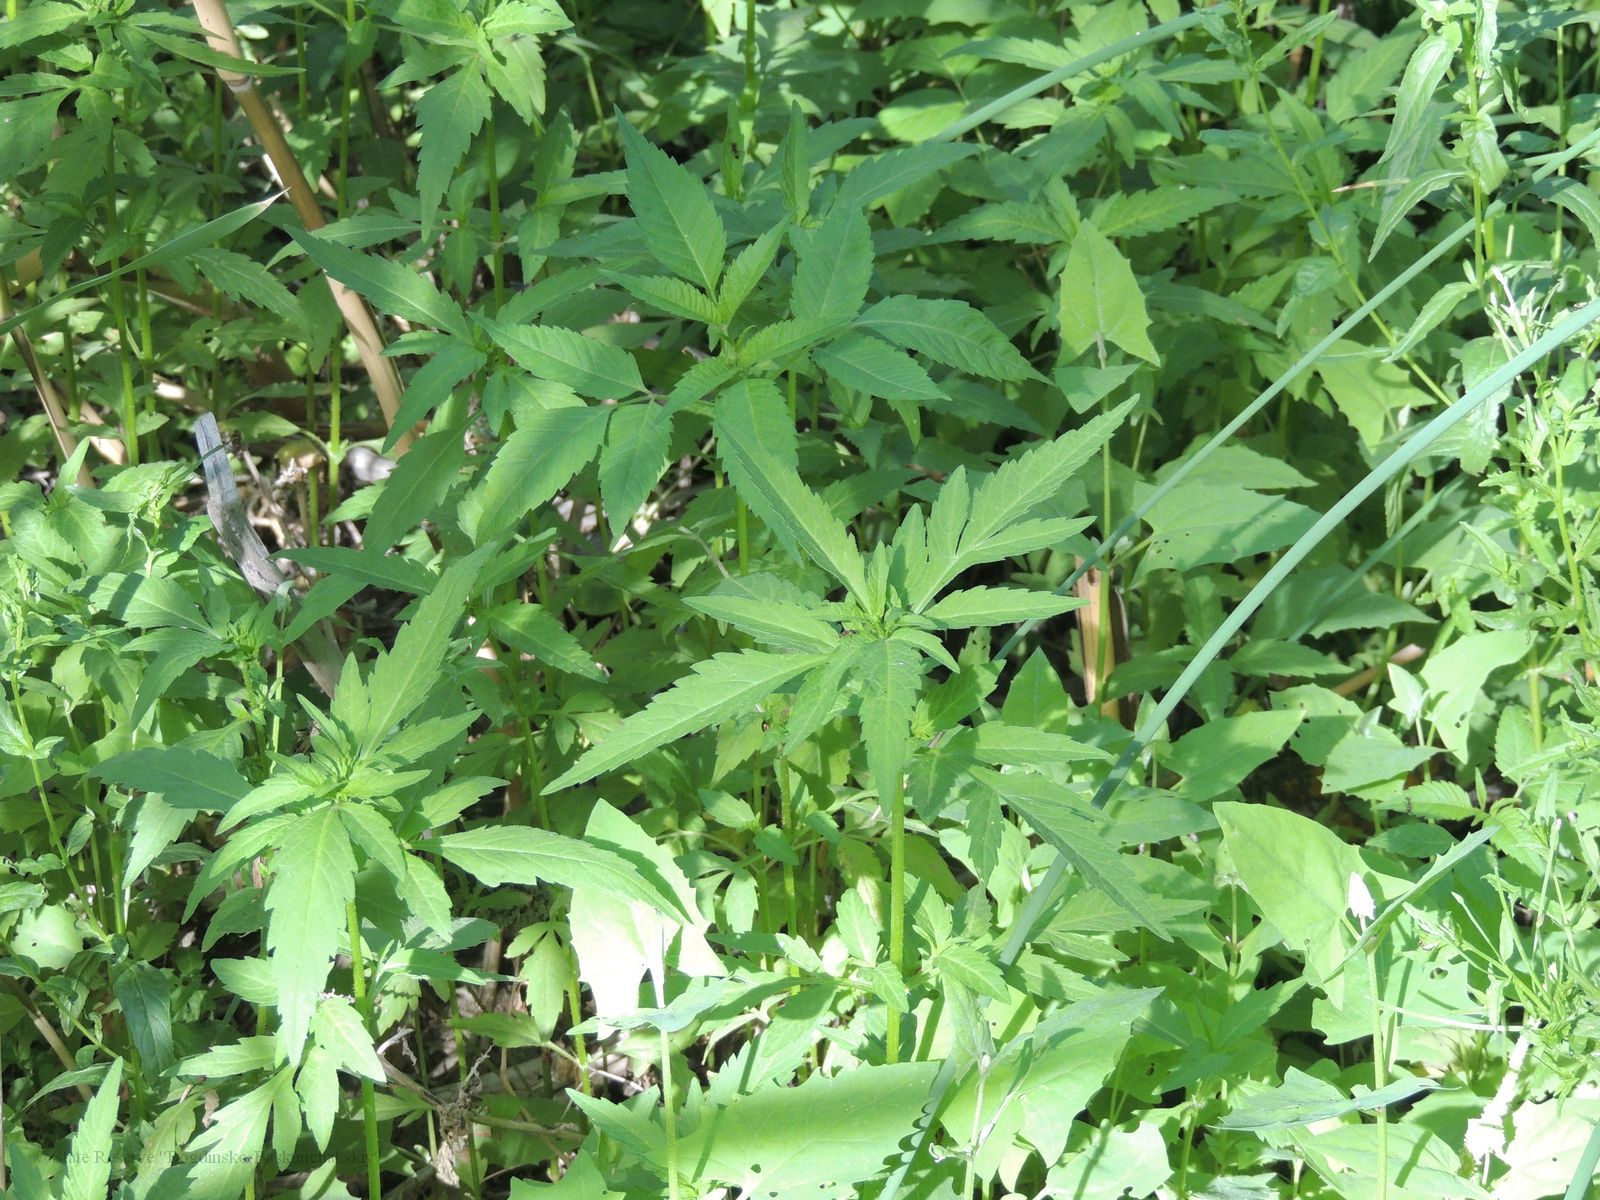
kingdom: Plantae
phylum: Tracheophyta
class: Magnoliopsida
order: Asterales
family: Asteraceae
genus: Bidens
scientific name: Bidens tripartita
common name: Trifid bur-marigold
